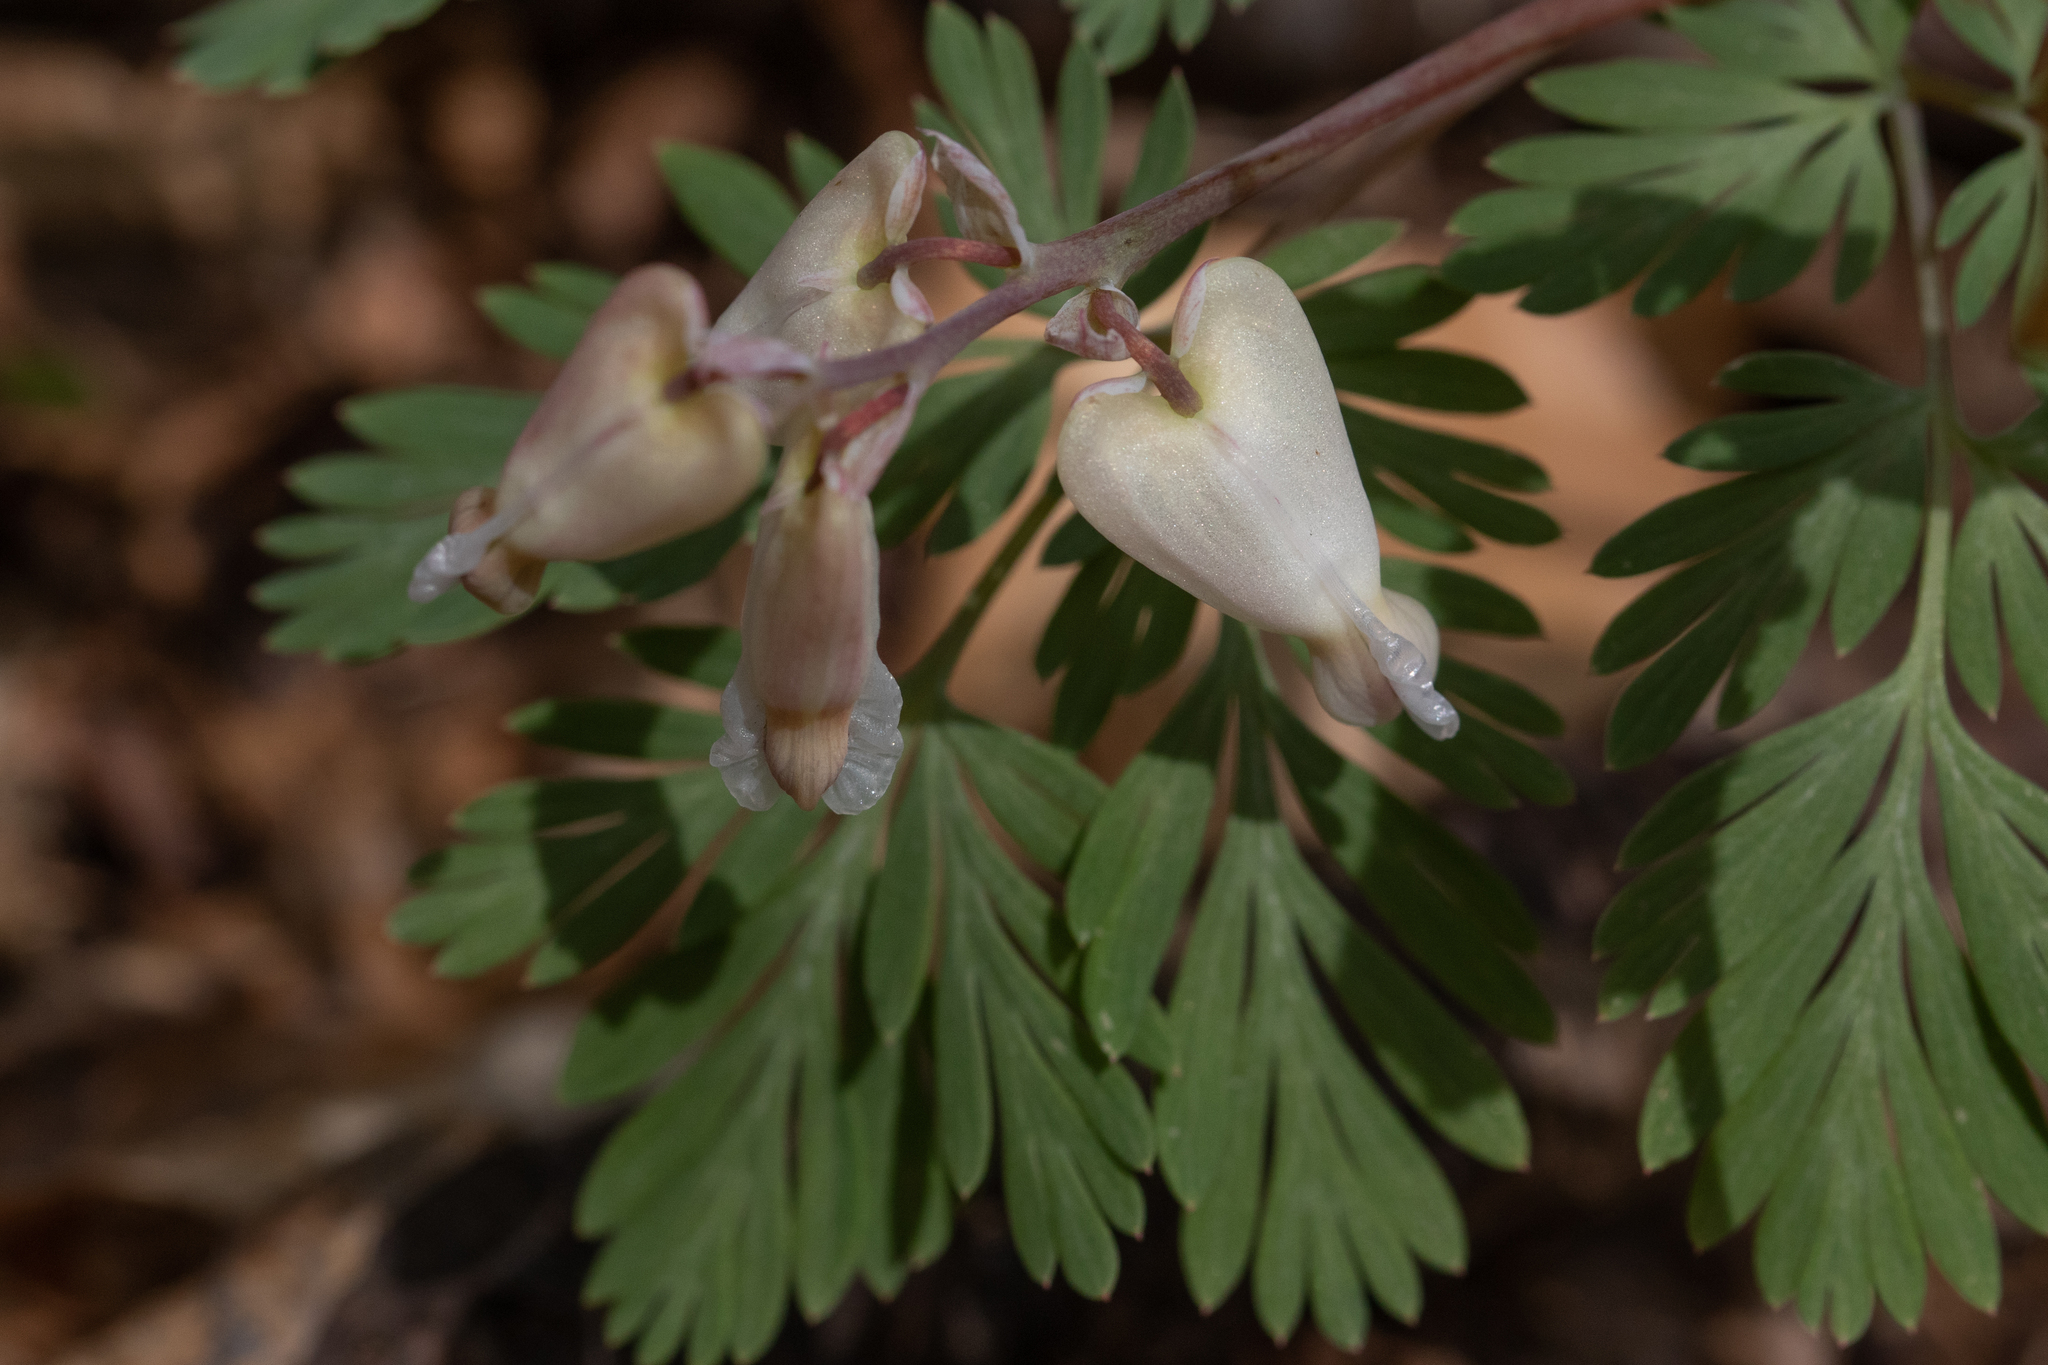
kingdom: Plantae
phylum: Tracheophyta
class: Magnoliopsida
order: Ranunculales
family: Papaveraceae
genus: Dicentra
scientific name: Dicentra canadensis
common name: Squirrel-corn
